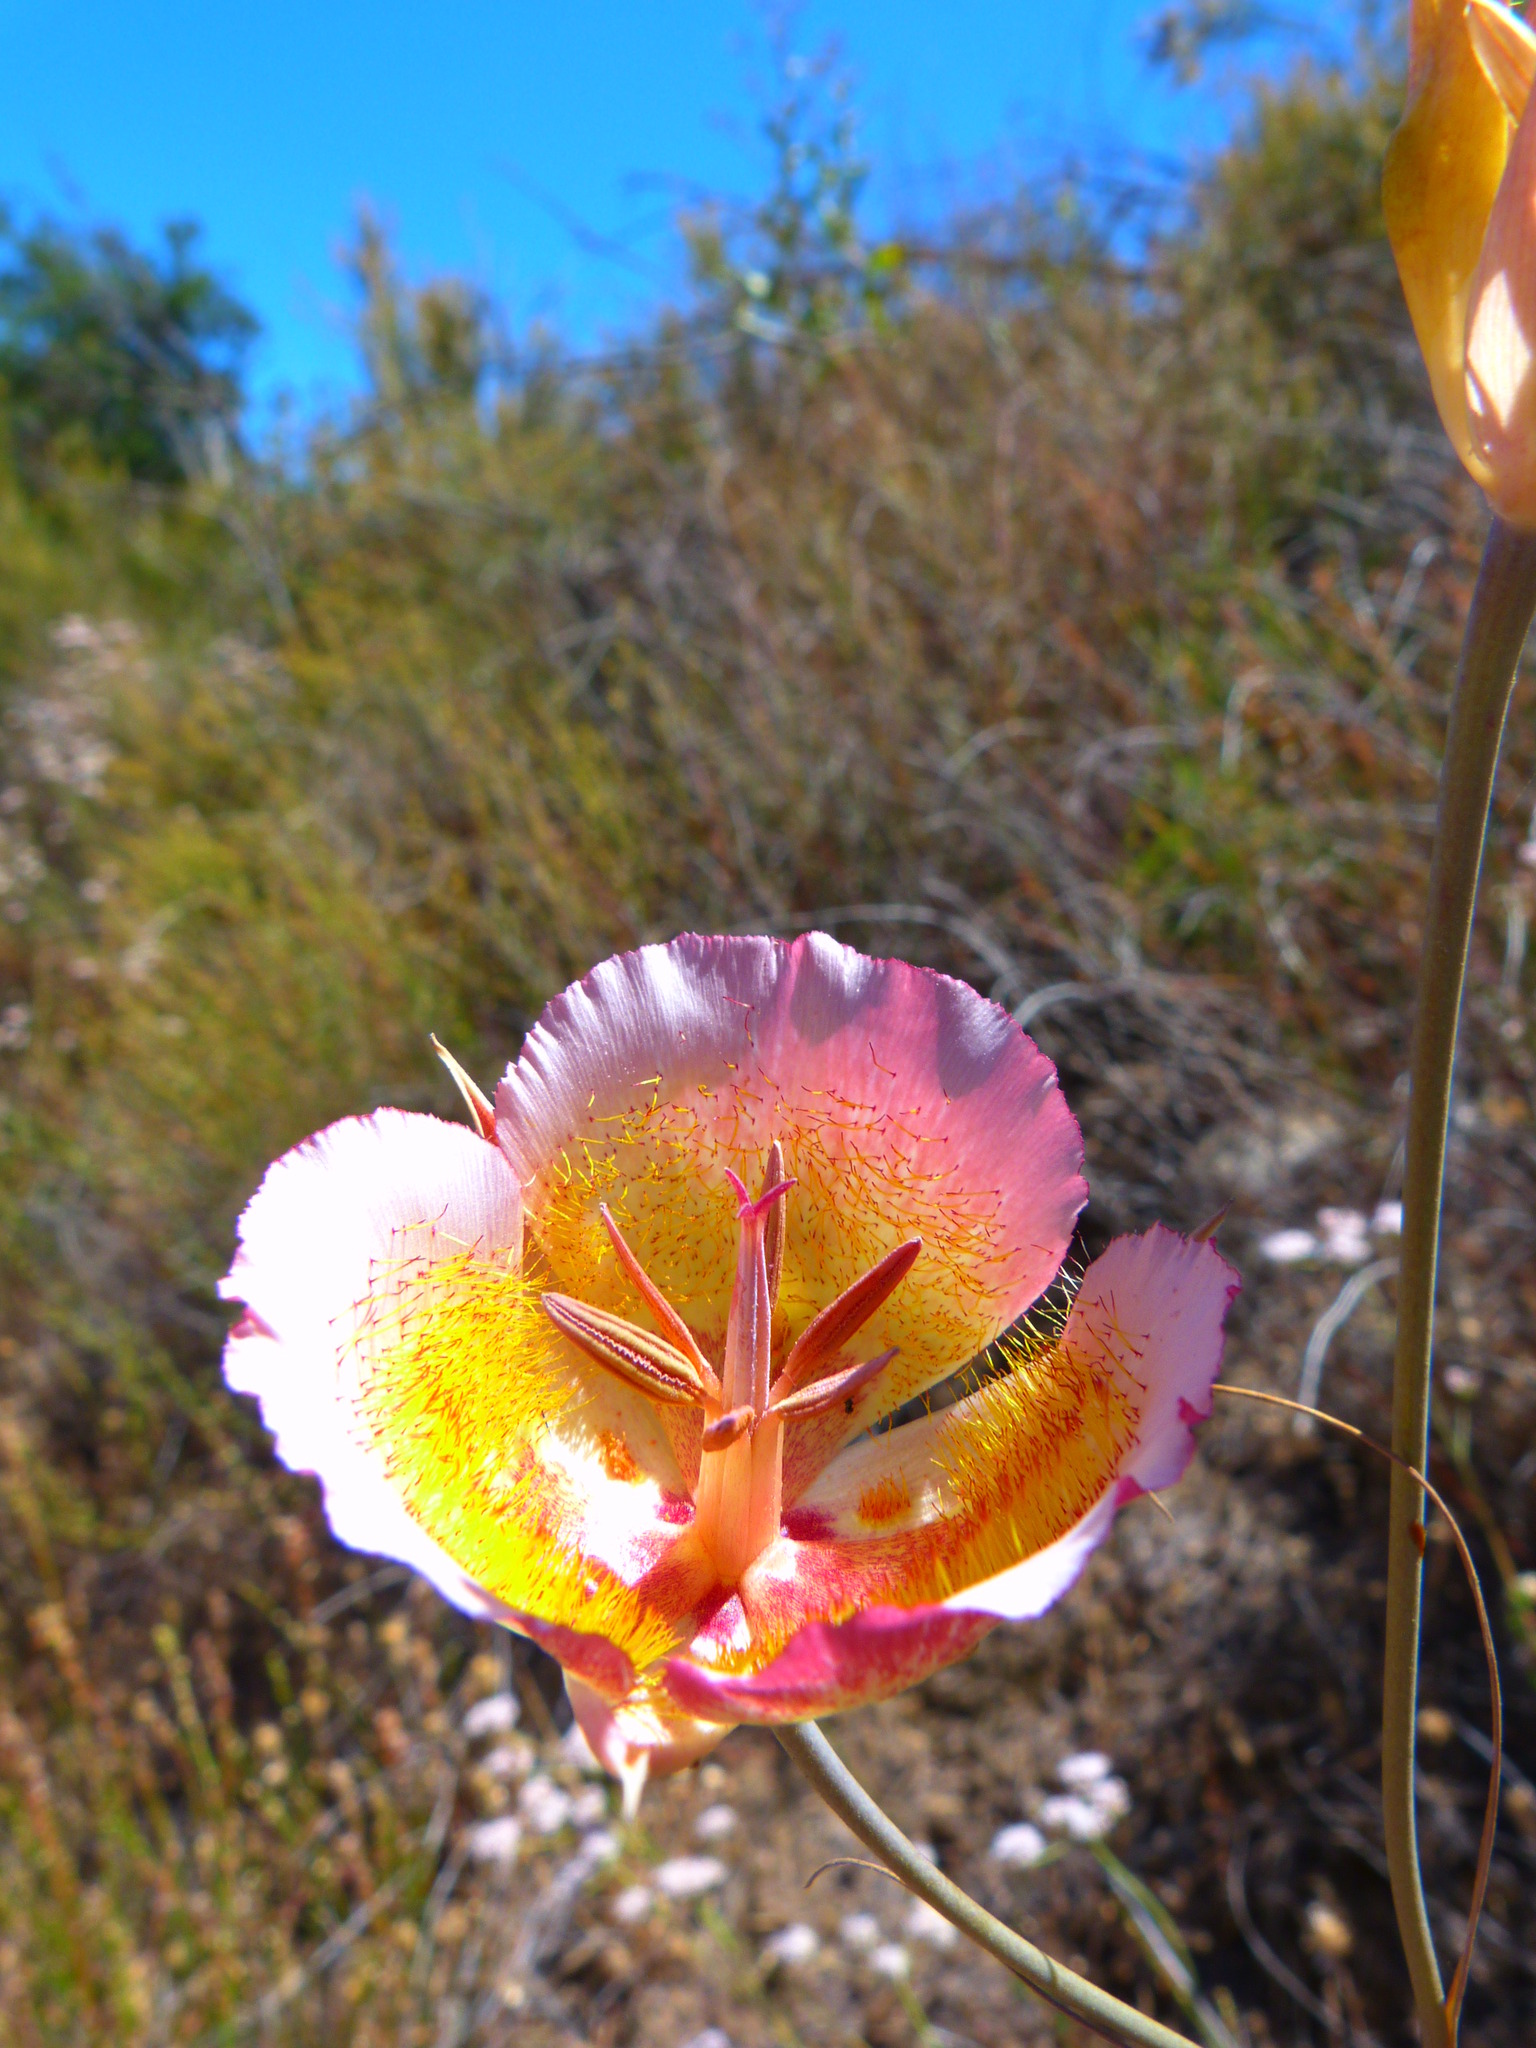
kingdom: Plantae
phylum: Tracheophyta
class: Liliopsida
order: Liliales
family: Liliaceae
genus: Calochortus
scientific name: Calochortus plummerae
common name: Plummer's mariposa-lily
